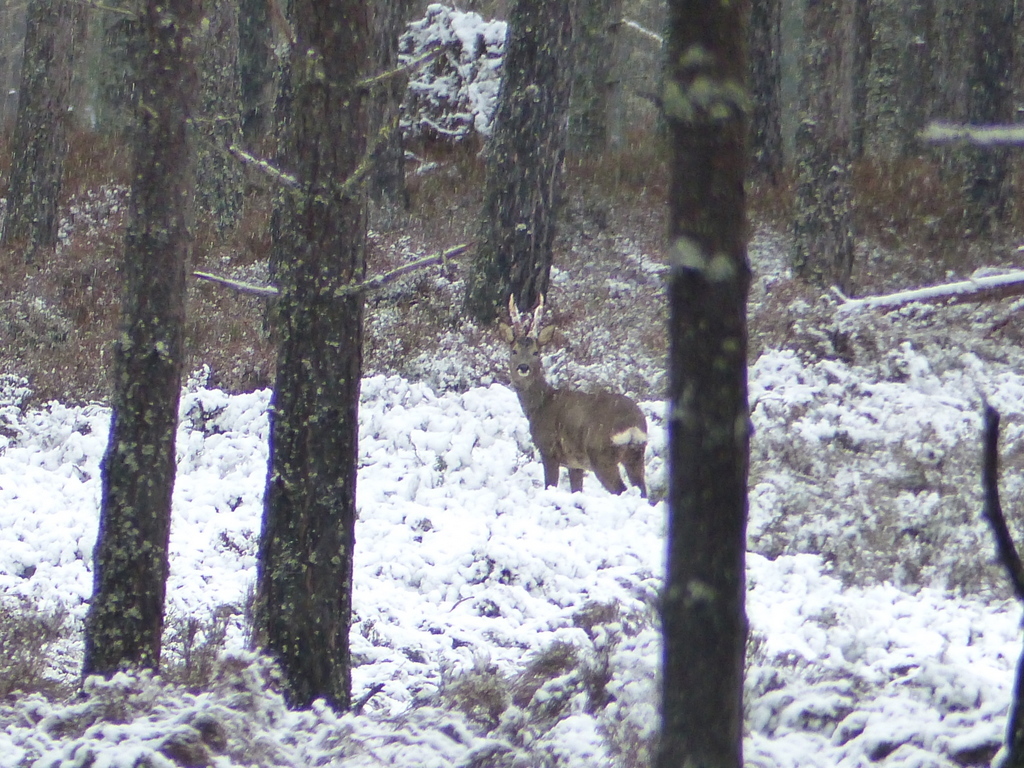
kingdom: Animalia
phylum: Chordata
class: Mammalia
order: Artiodactyla
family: Cervidae
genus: Capreolus
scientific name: Capreolus capreolus
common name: Western roe deer
